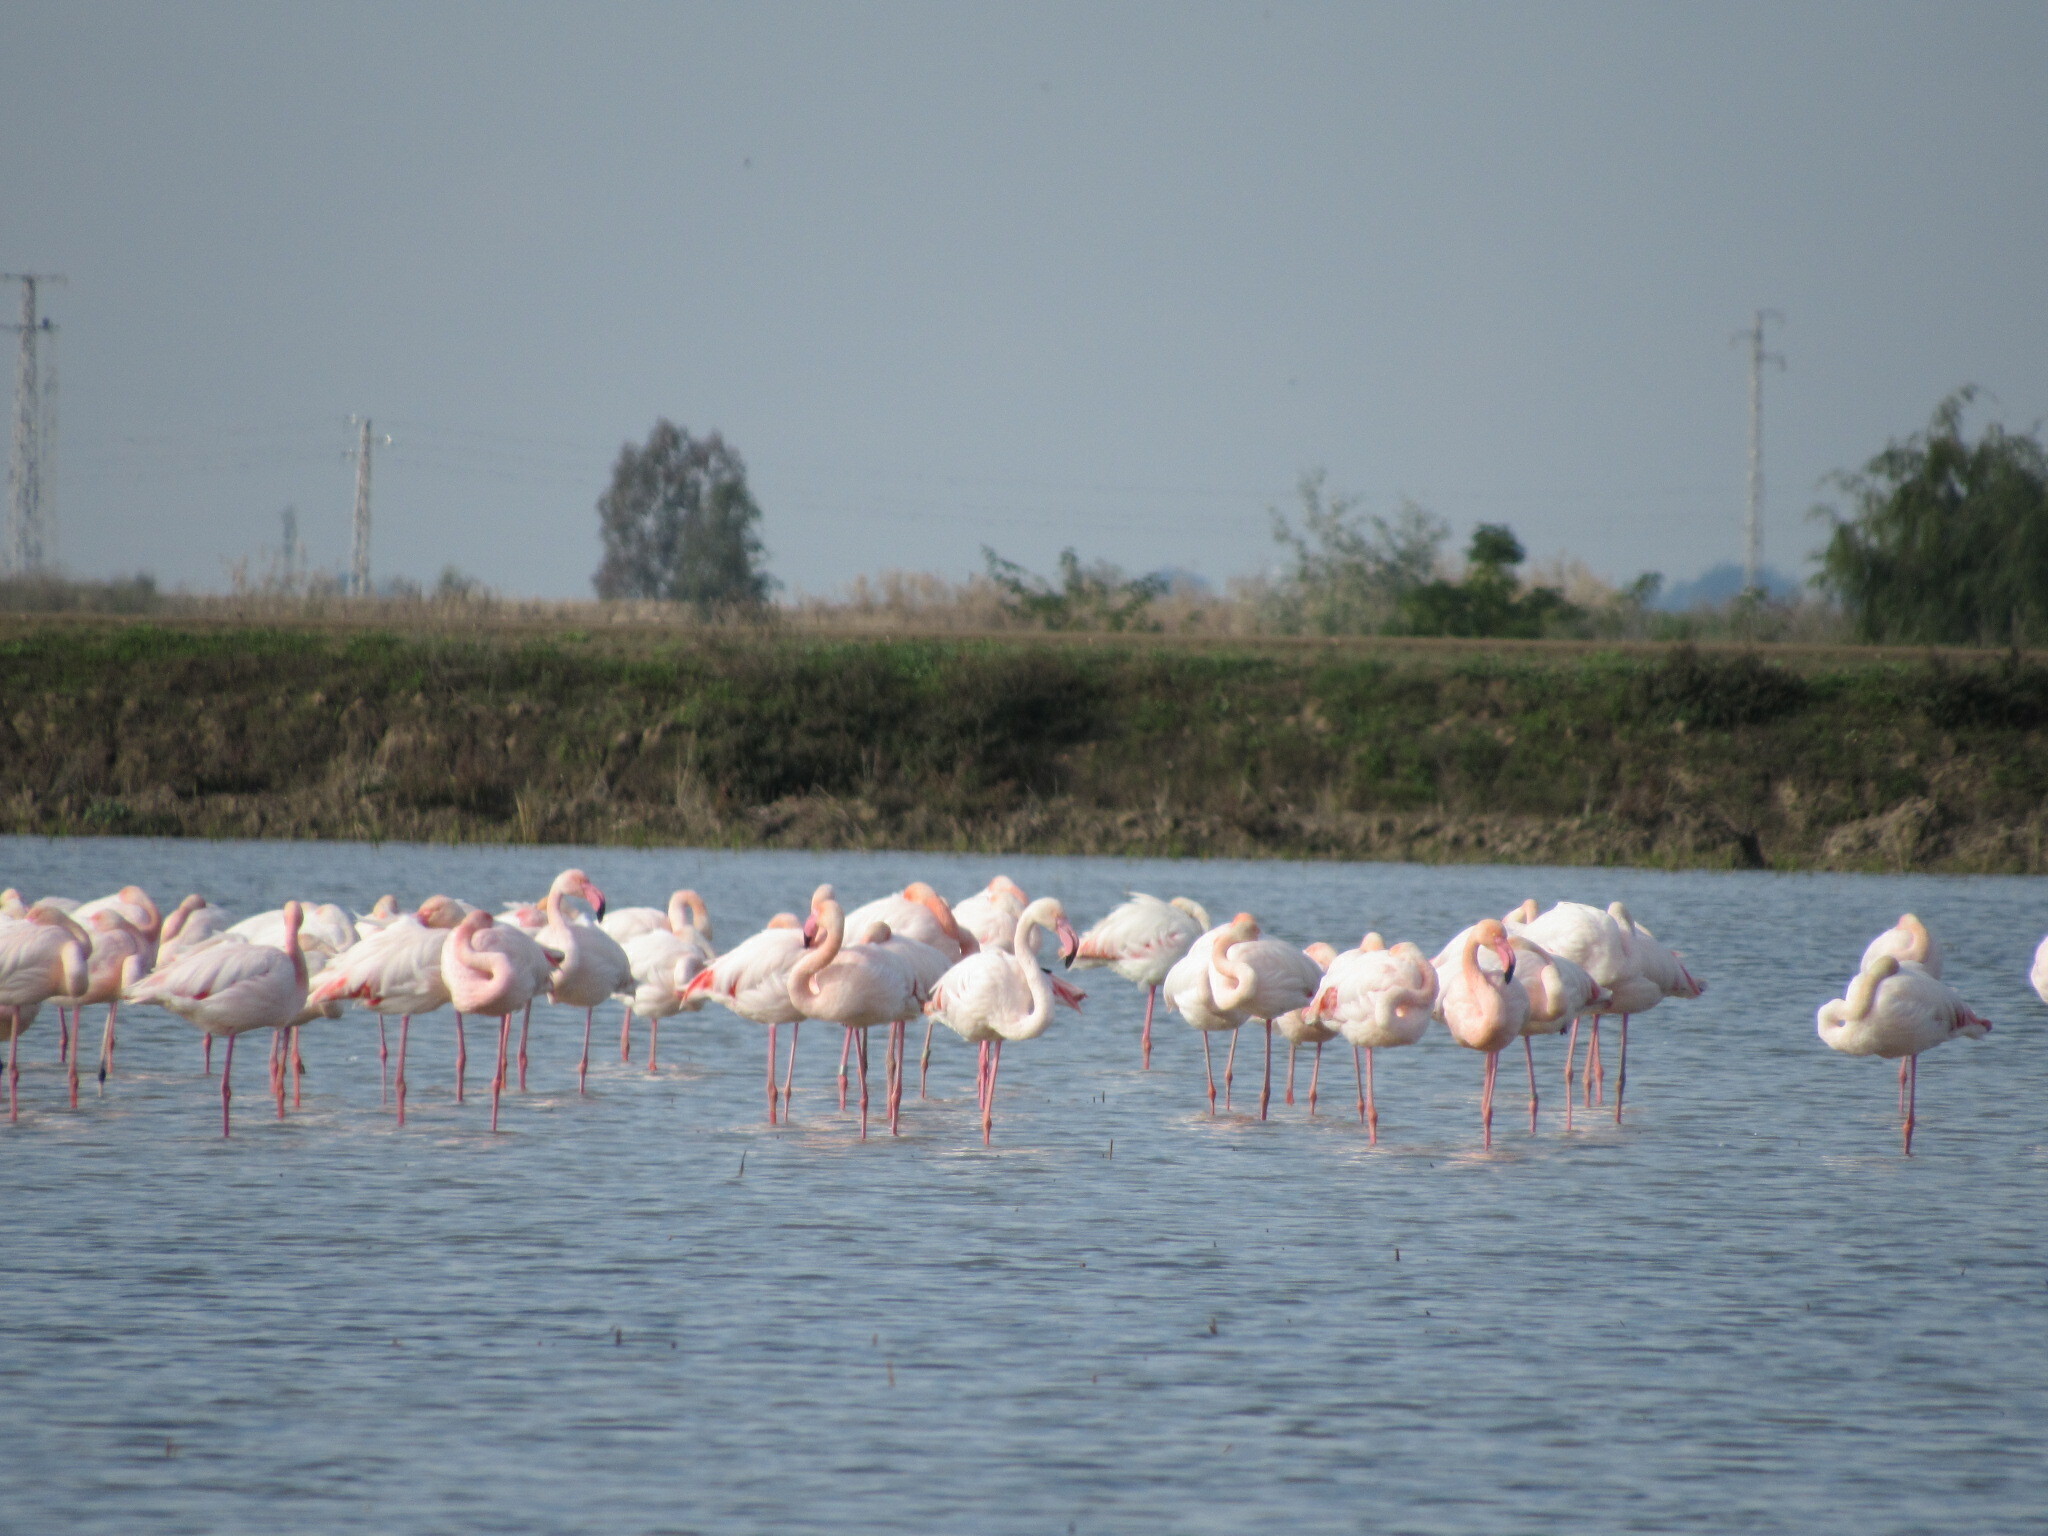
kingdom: Animalia
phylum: Chordata
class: Aves
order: Phoenicopteriformes
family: Phoenicopteridae
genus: Phoenicopterus
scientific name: Phoenicopterus roseus
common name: Greater flamingo
